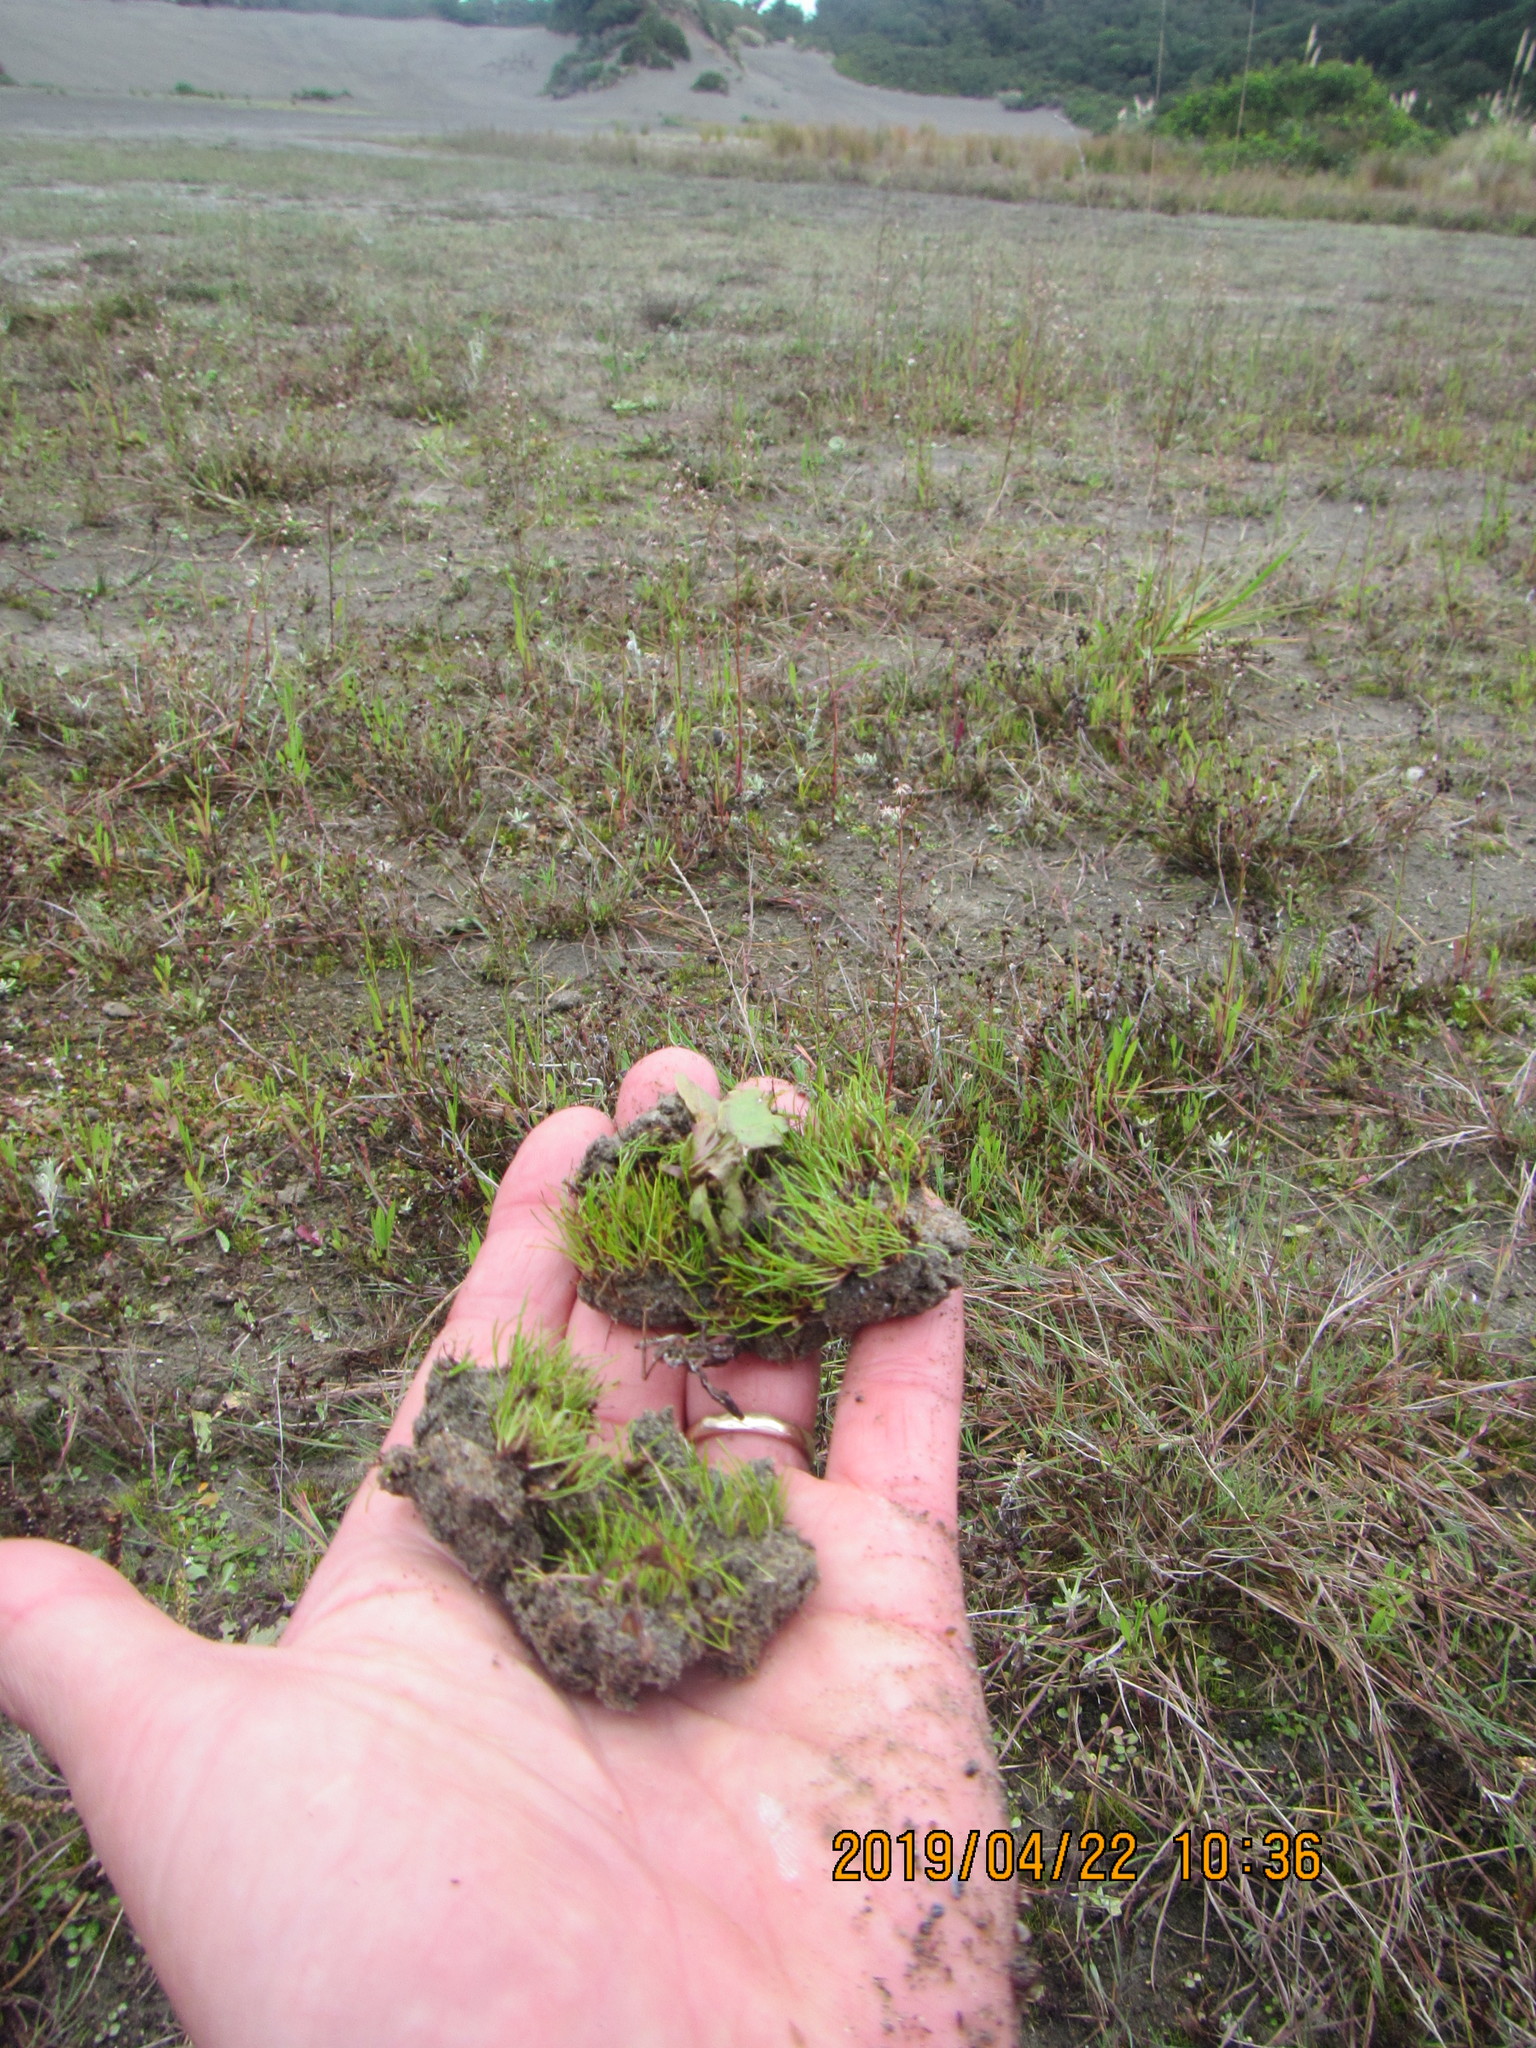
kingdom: Plantae
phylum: Tracheophyta
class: Liliopsida
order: Poales
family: Cyperaceae
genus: Isolepis
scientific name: Isolepis basilaris
